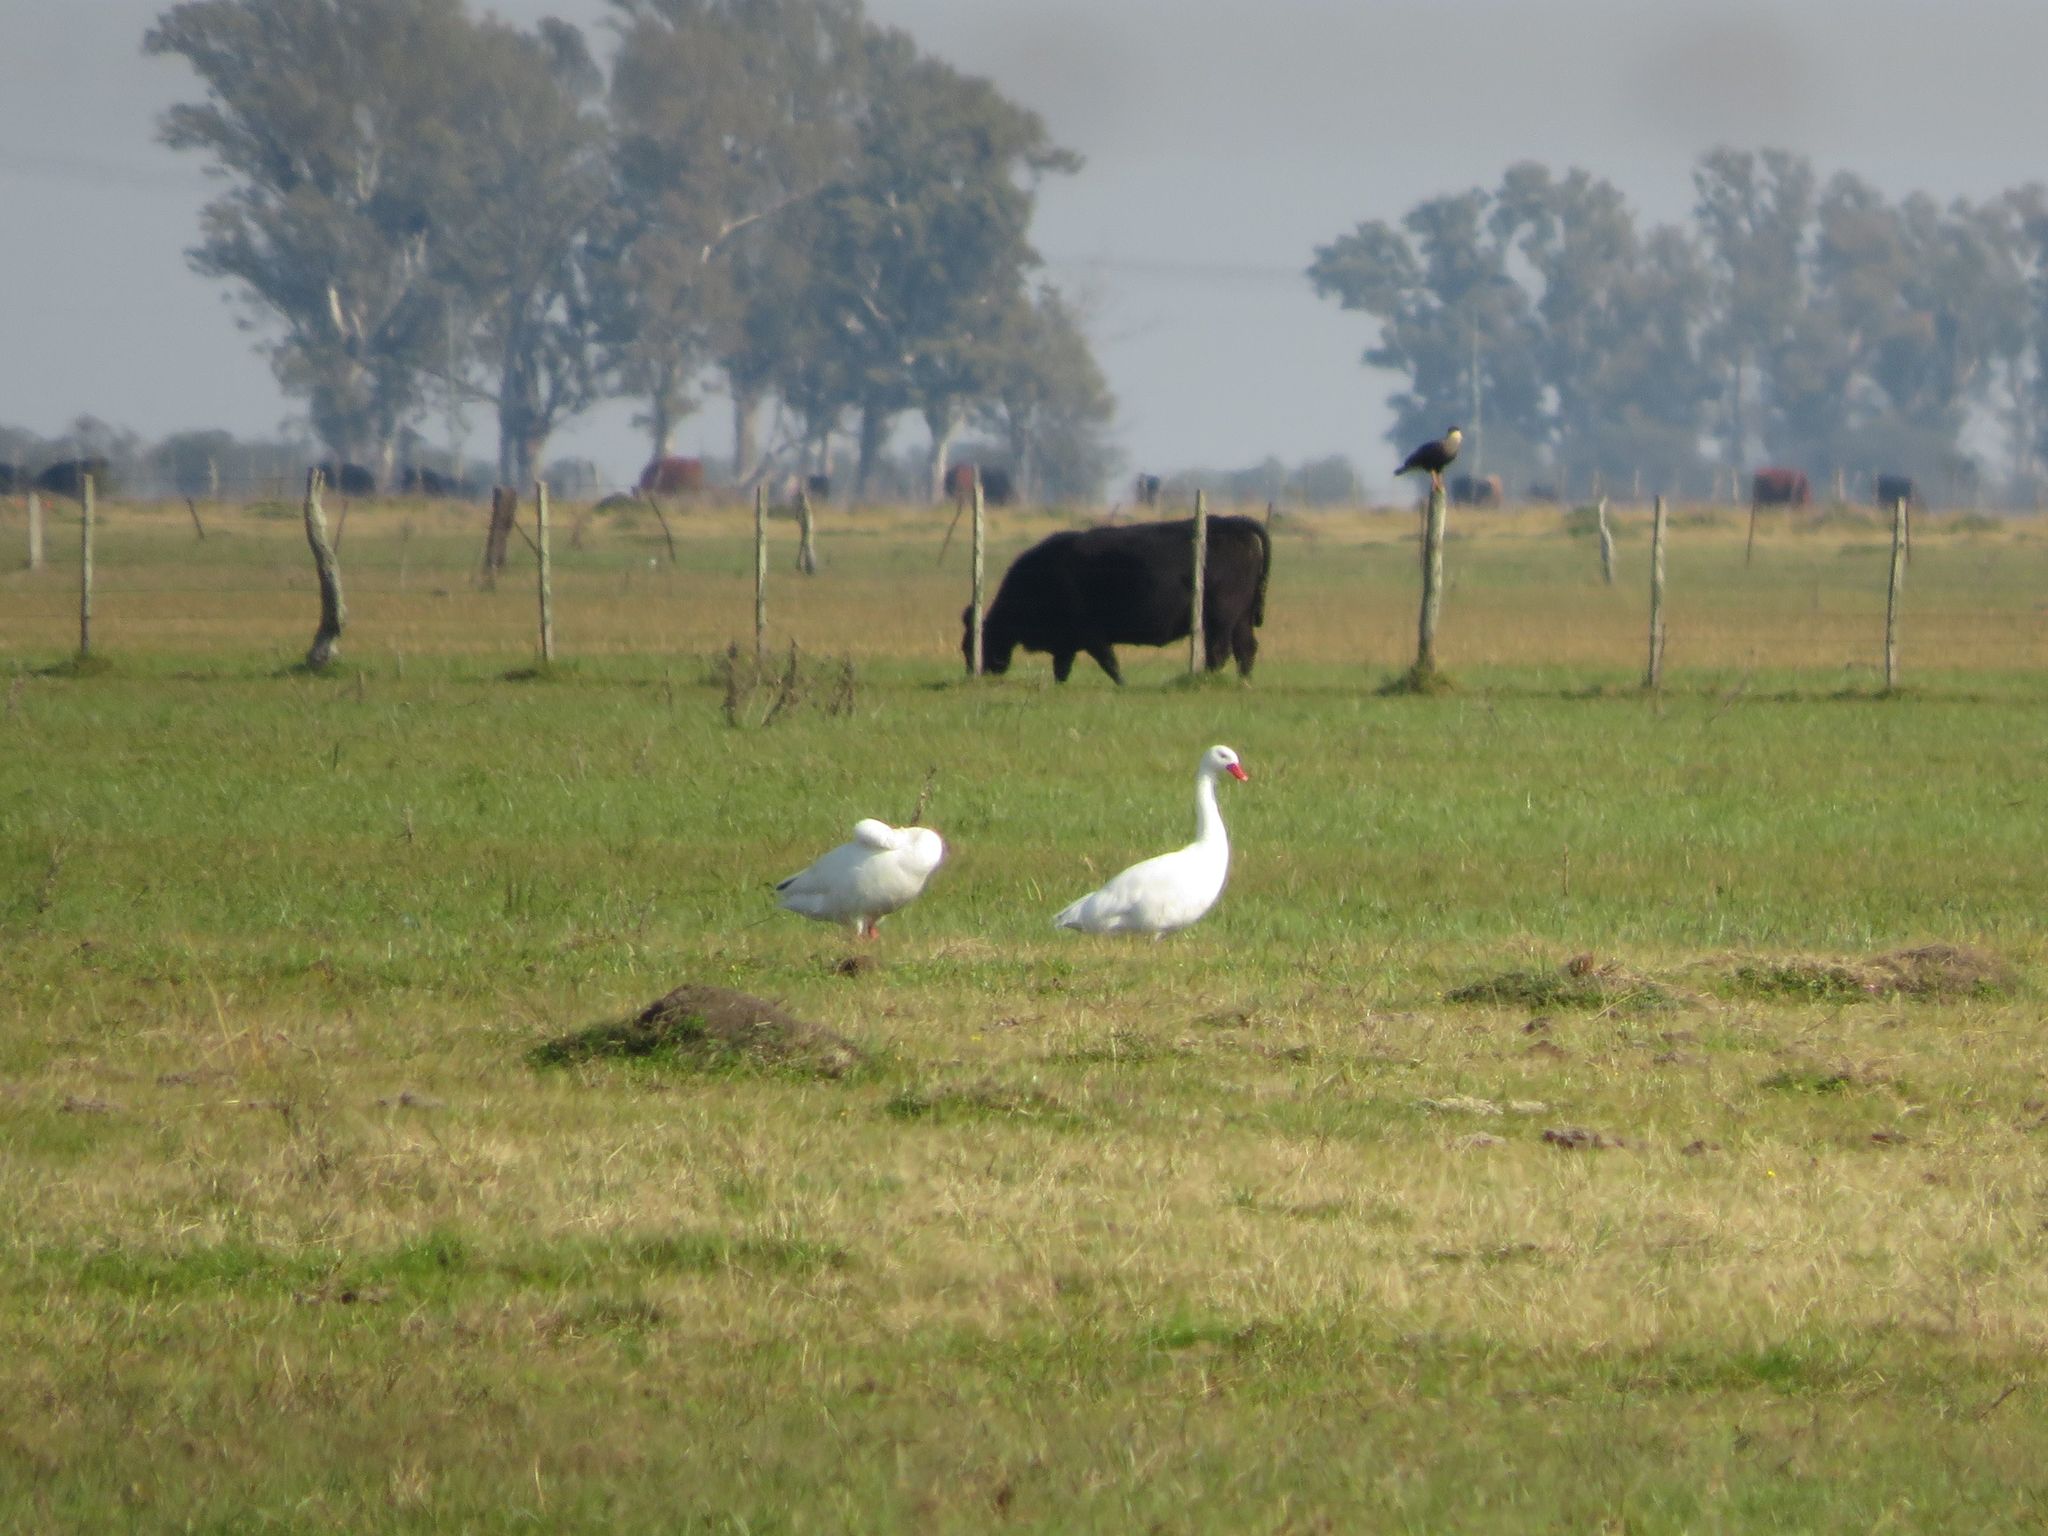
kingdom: Animalia
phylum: Chordata
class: Aves
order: Anseriformes
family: Anatidae
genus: Coscoroba
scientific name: Coscoroba coscoroba
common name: Coscoroba swan
